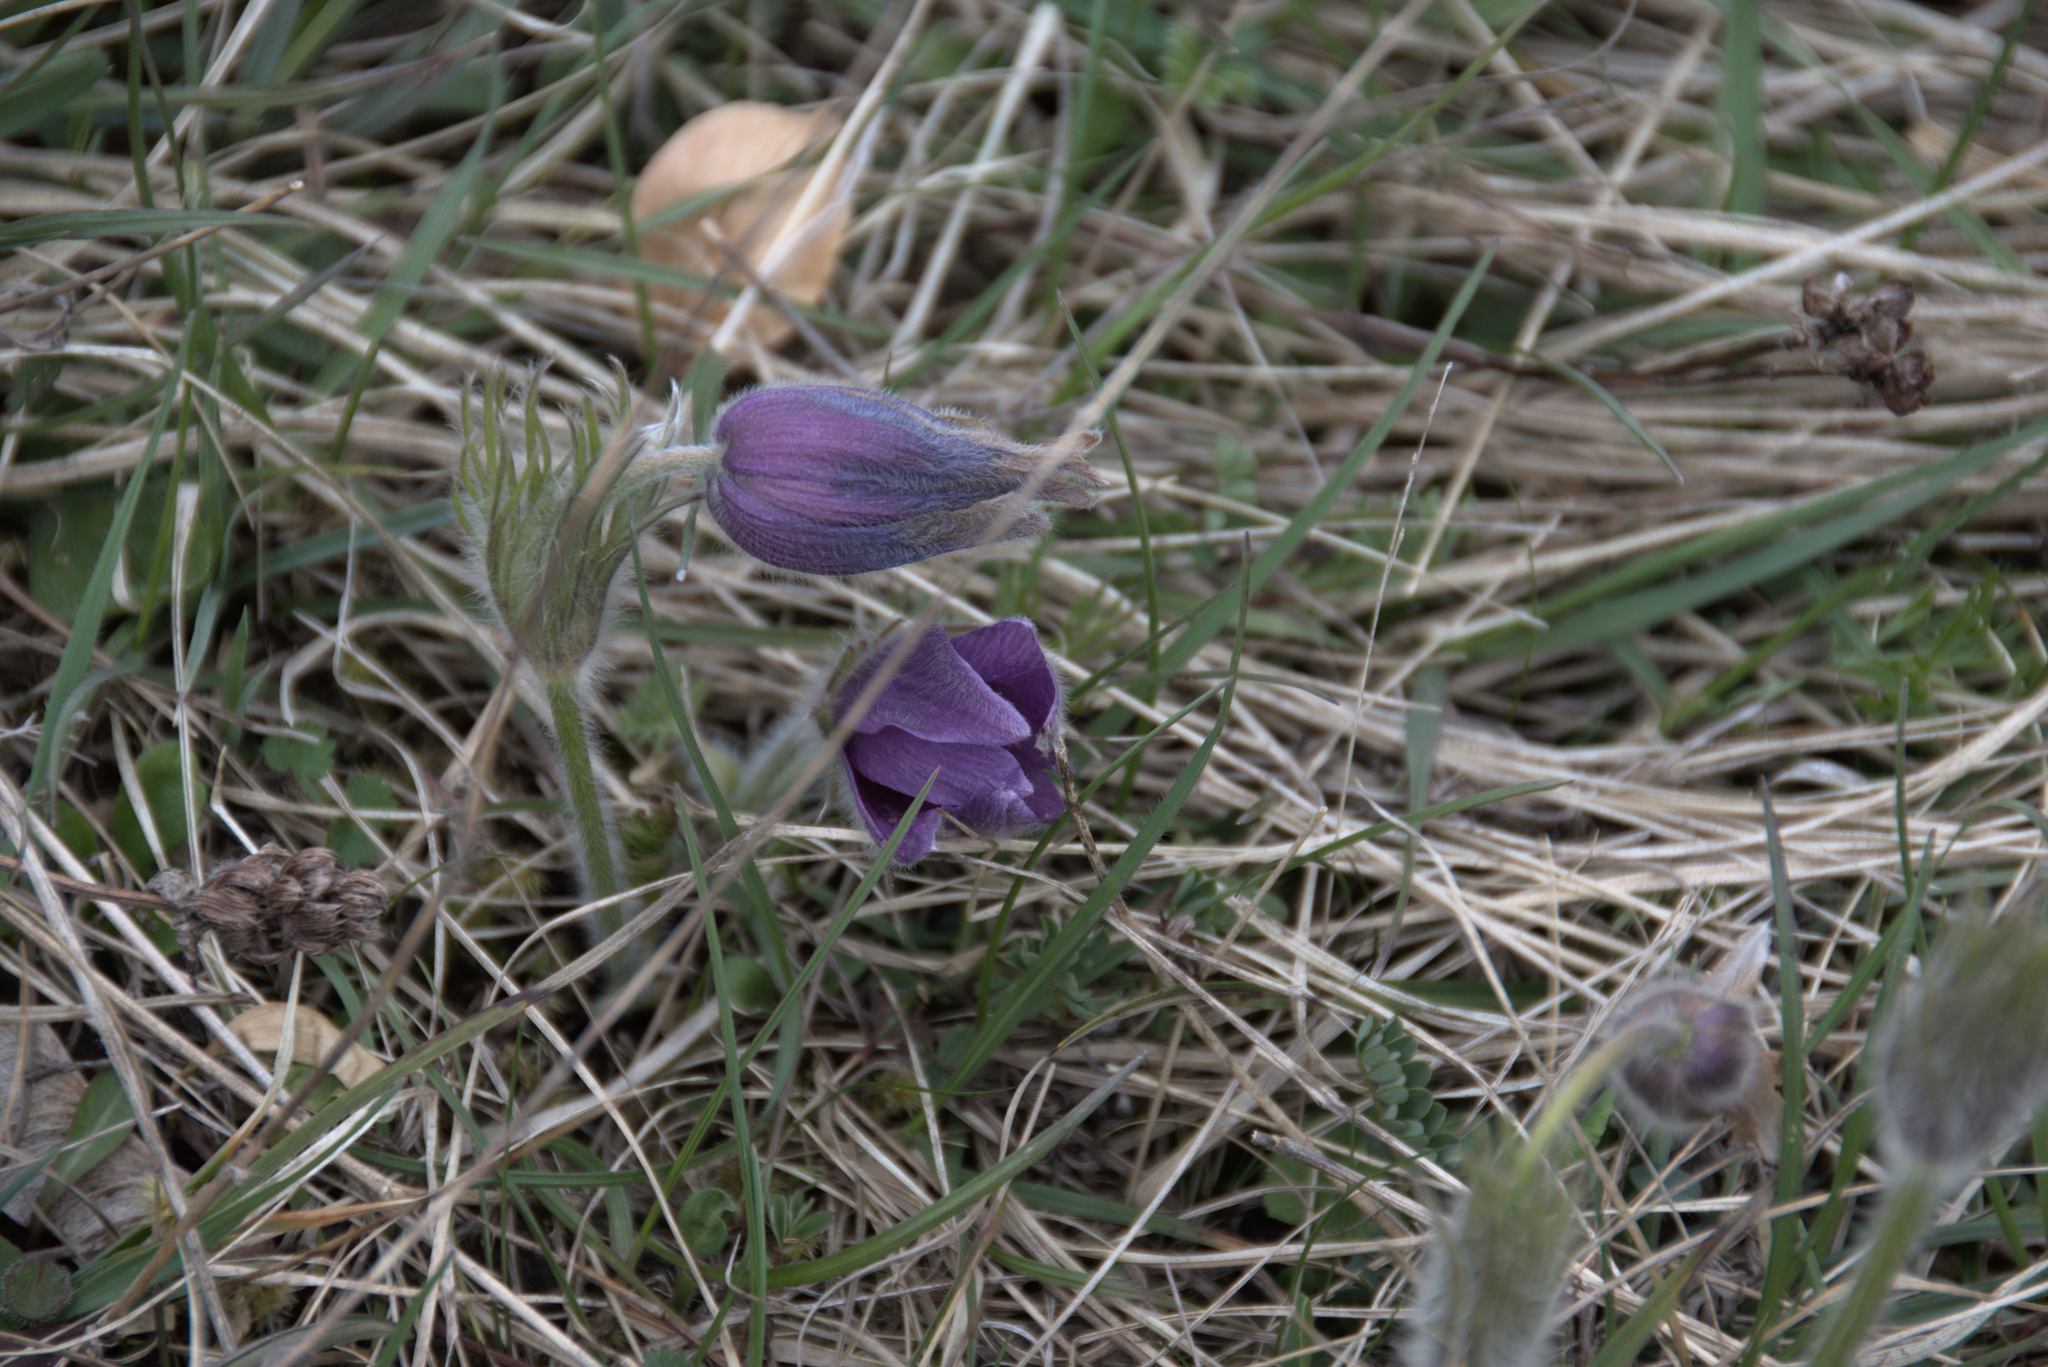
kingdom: Plantae
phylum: Tracheophyta
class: Magnoliopsida
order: Ranunculales
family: Ranunculaceae
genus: Pulsatilla
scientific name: Pulsatilla vulgaris
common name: Pasqueflower
